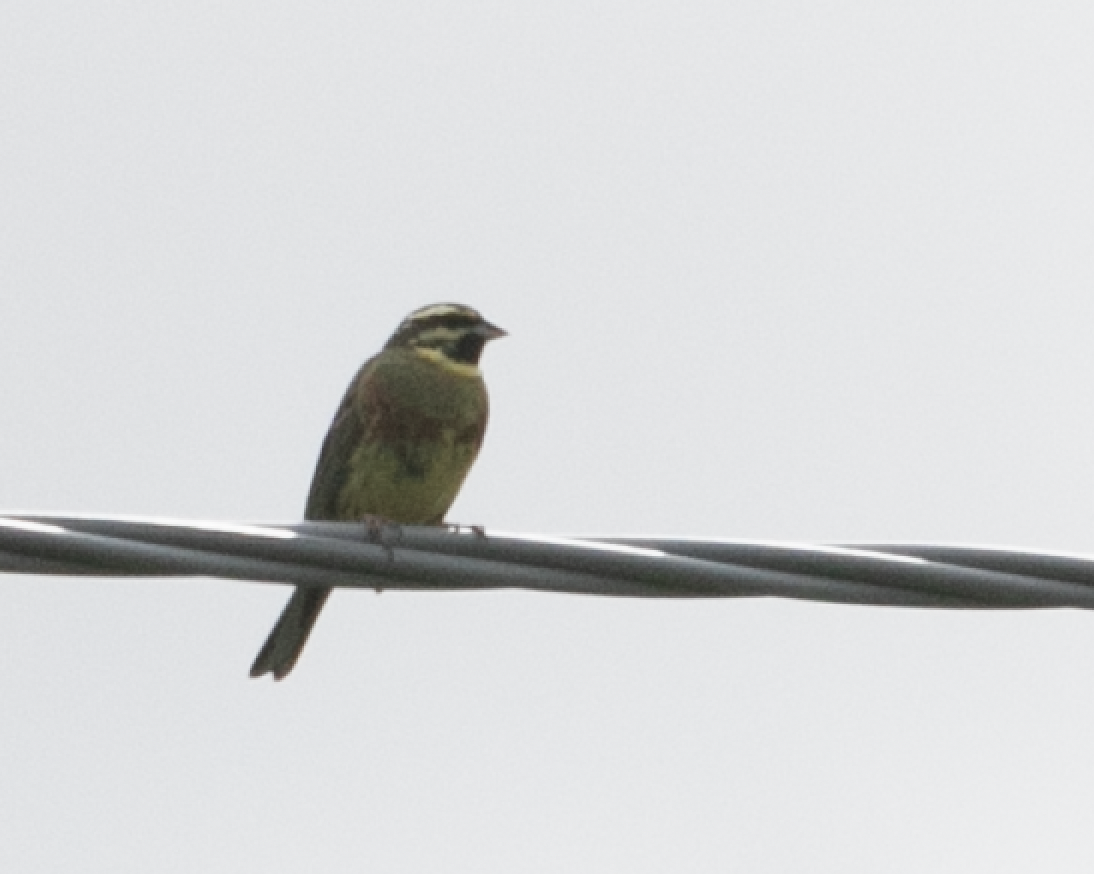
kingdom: Animalia
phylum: Chordata
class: Aves
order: Passeriformes
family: Emberizidae
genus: Emberiza
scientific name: Emberiza cirlus
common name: Cirl bunting
